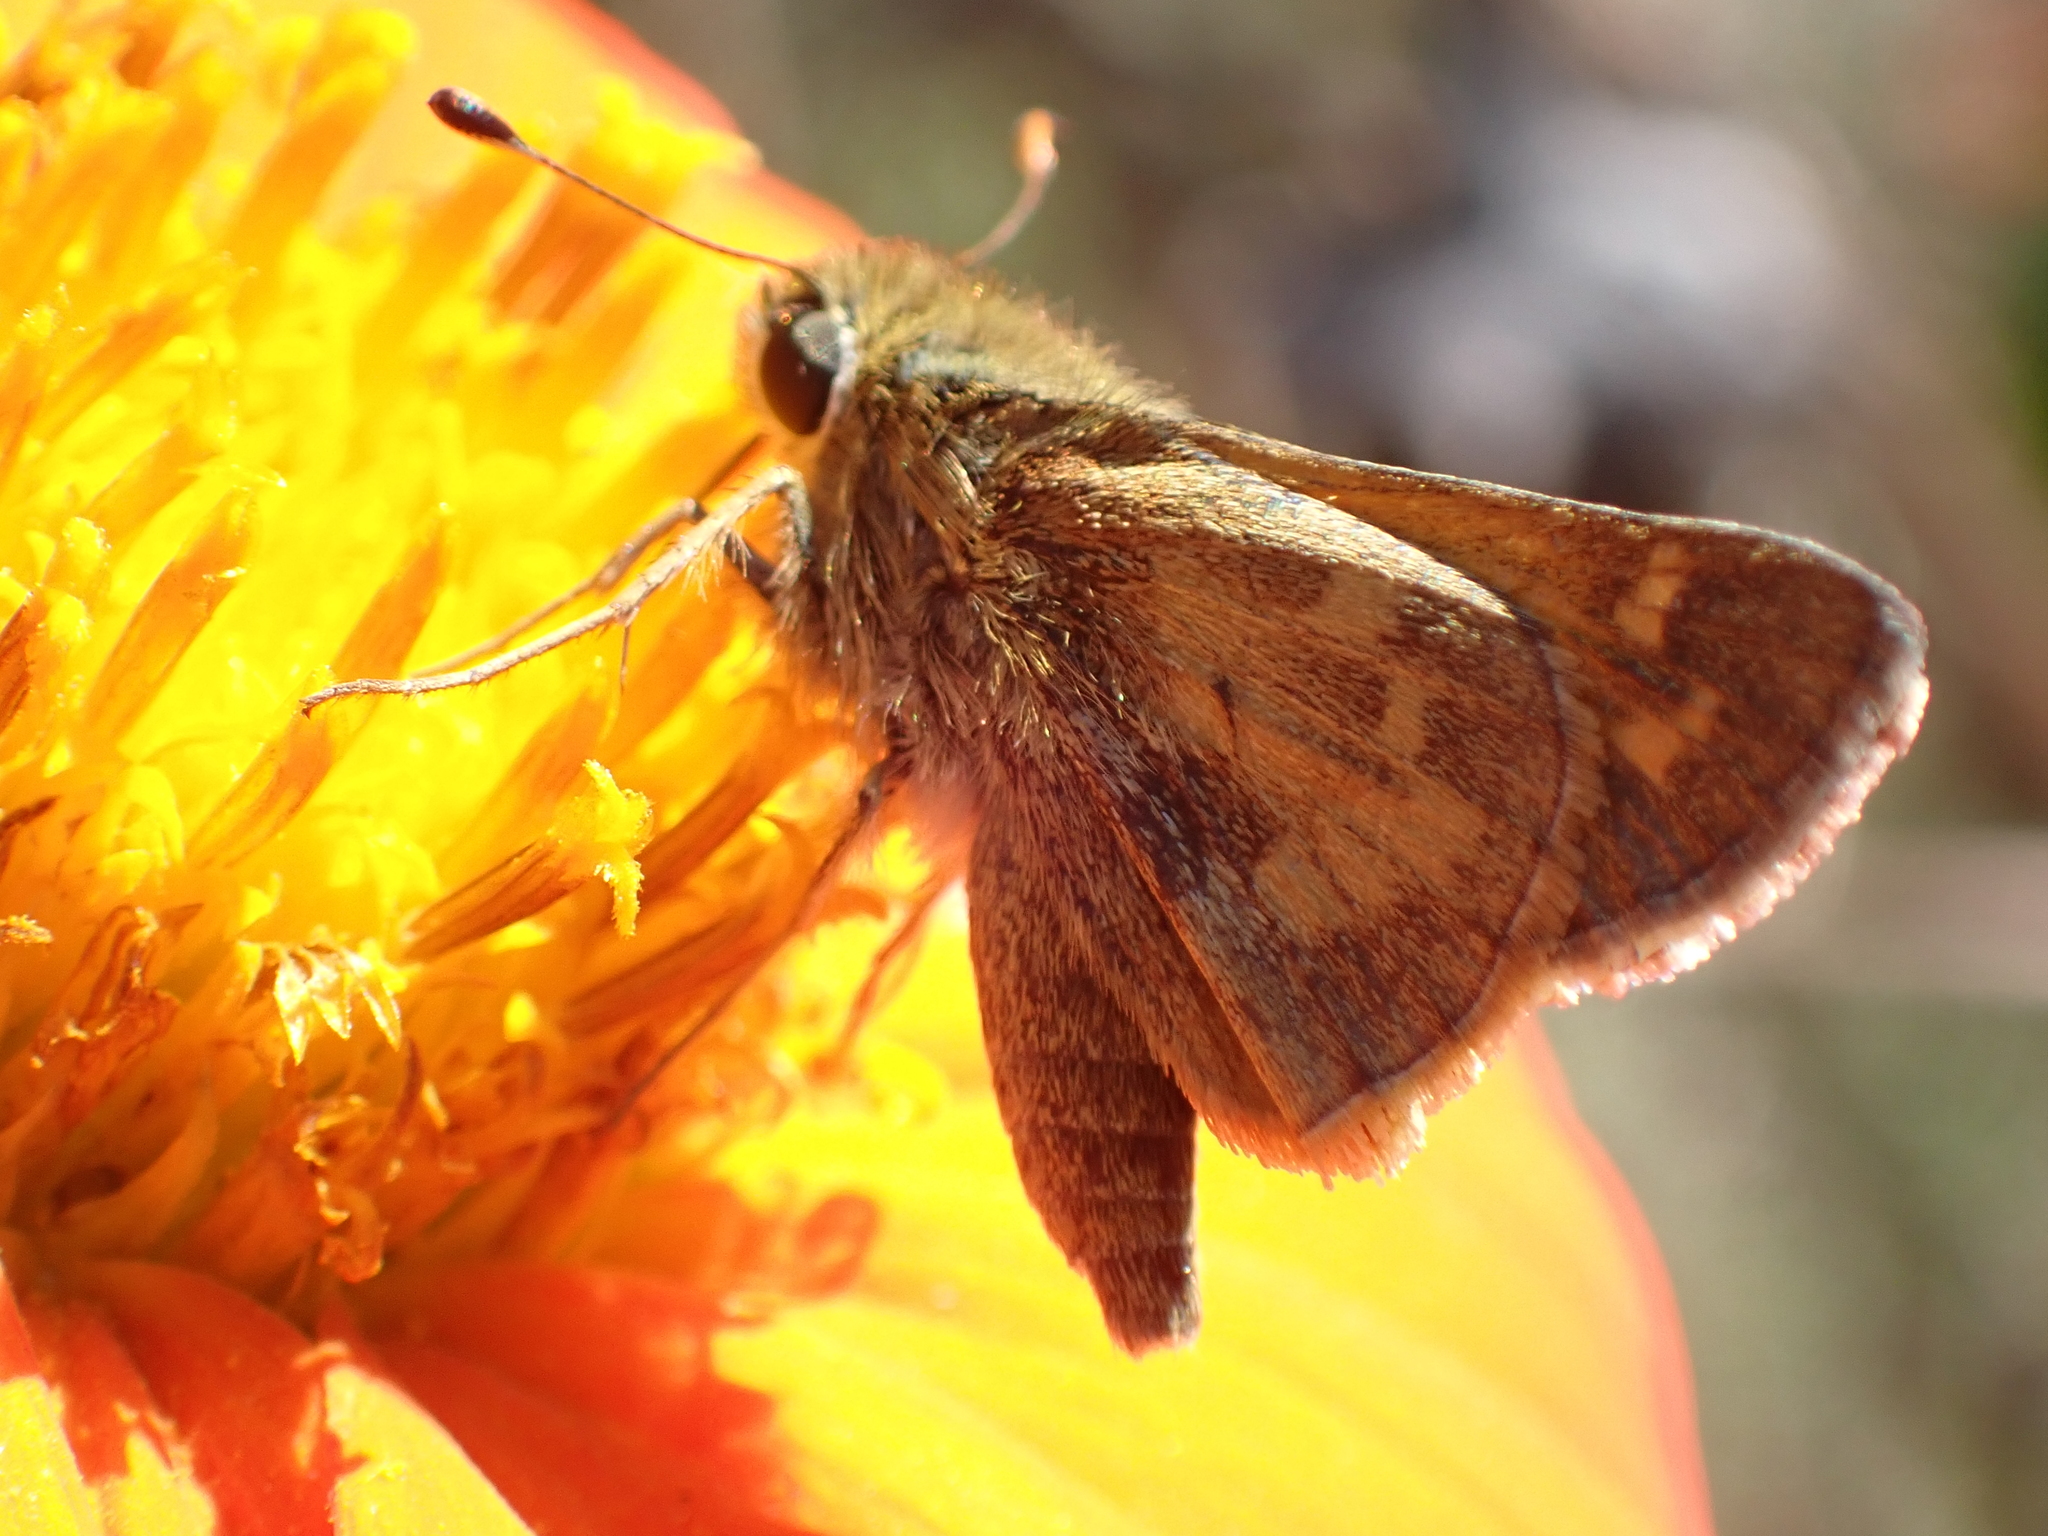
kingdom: Animalia
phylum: Arthropoda
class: Insecta
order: Lepidoptera
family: Hesperiidae
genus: Atalopedes
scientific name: Atalopedes
